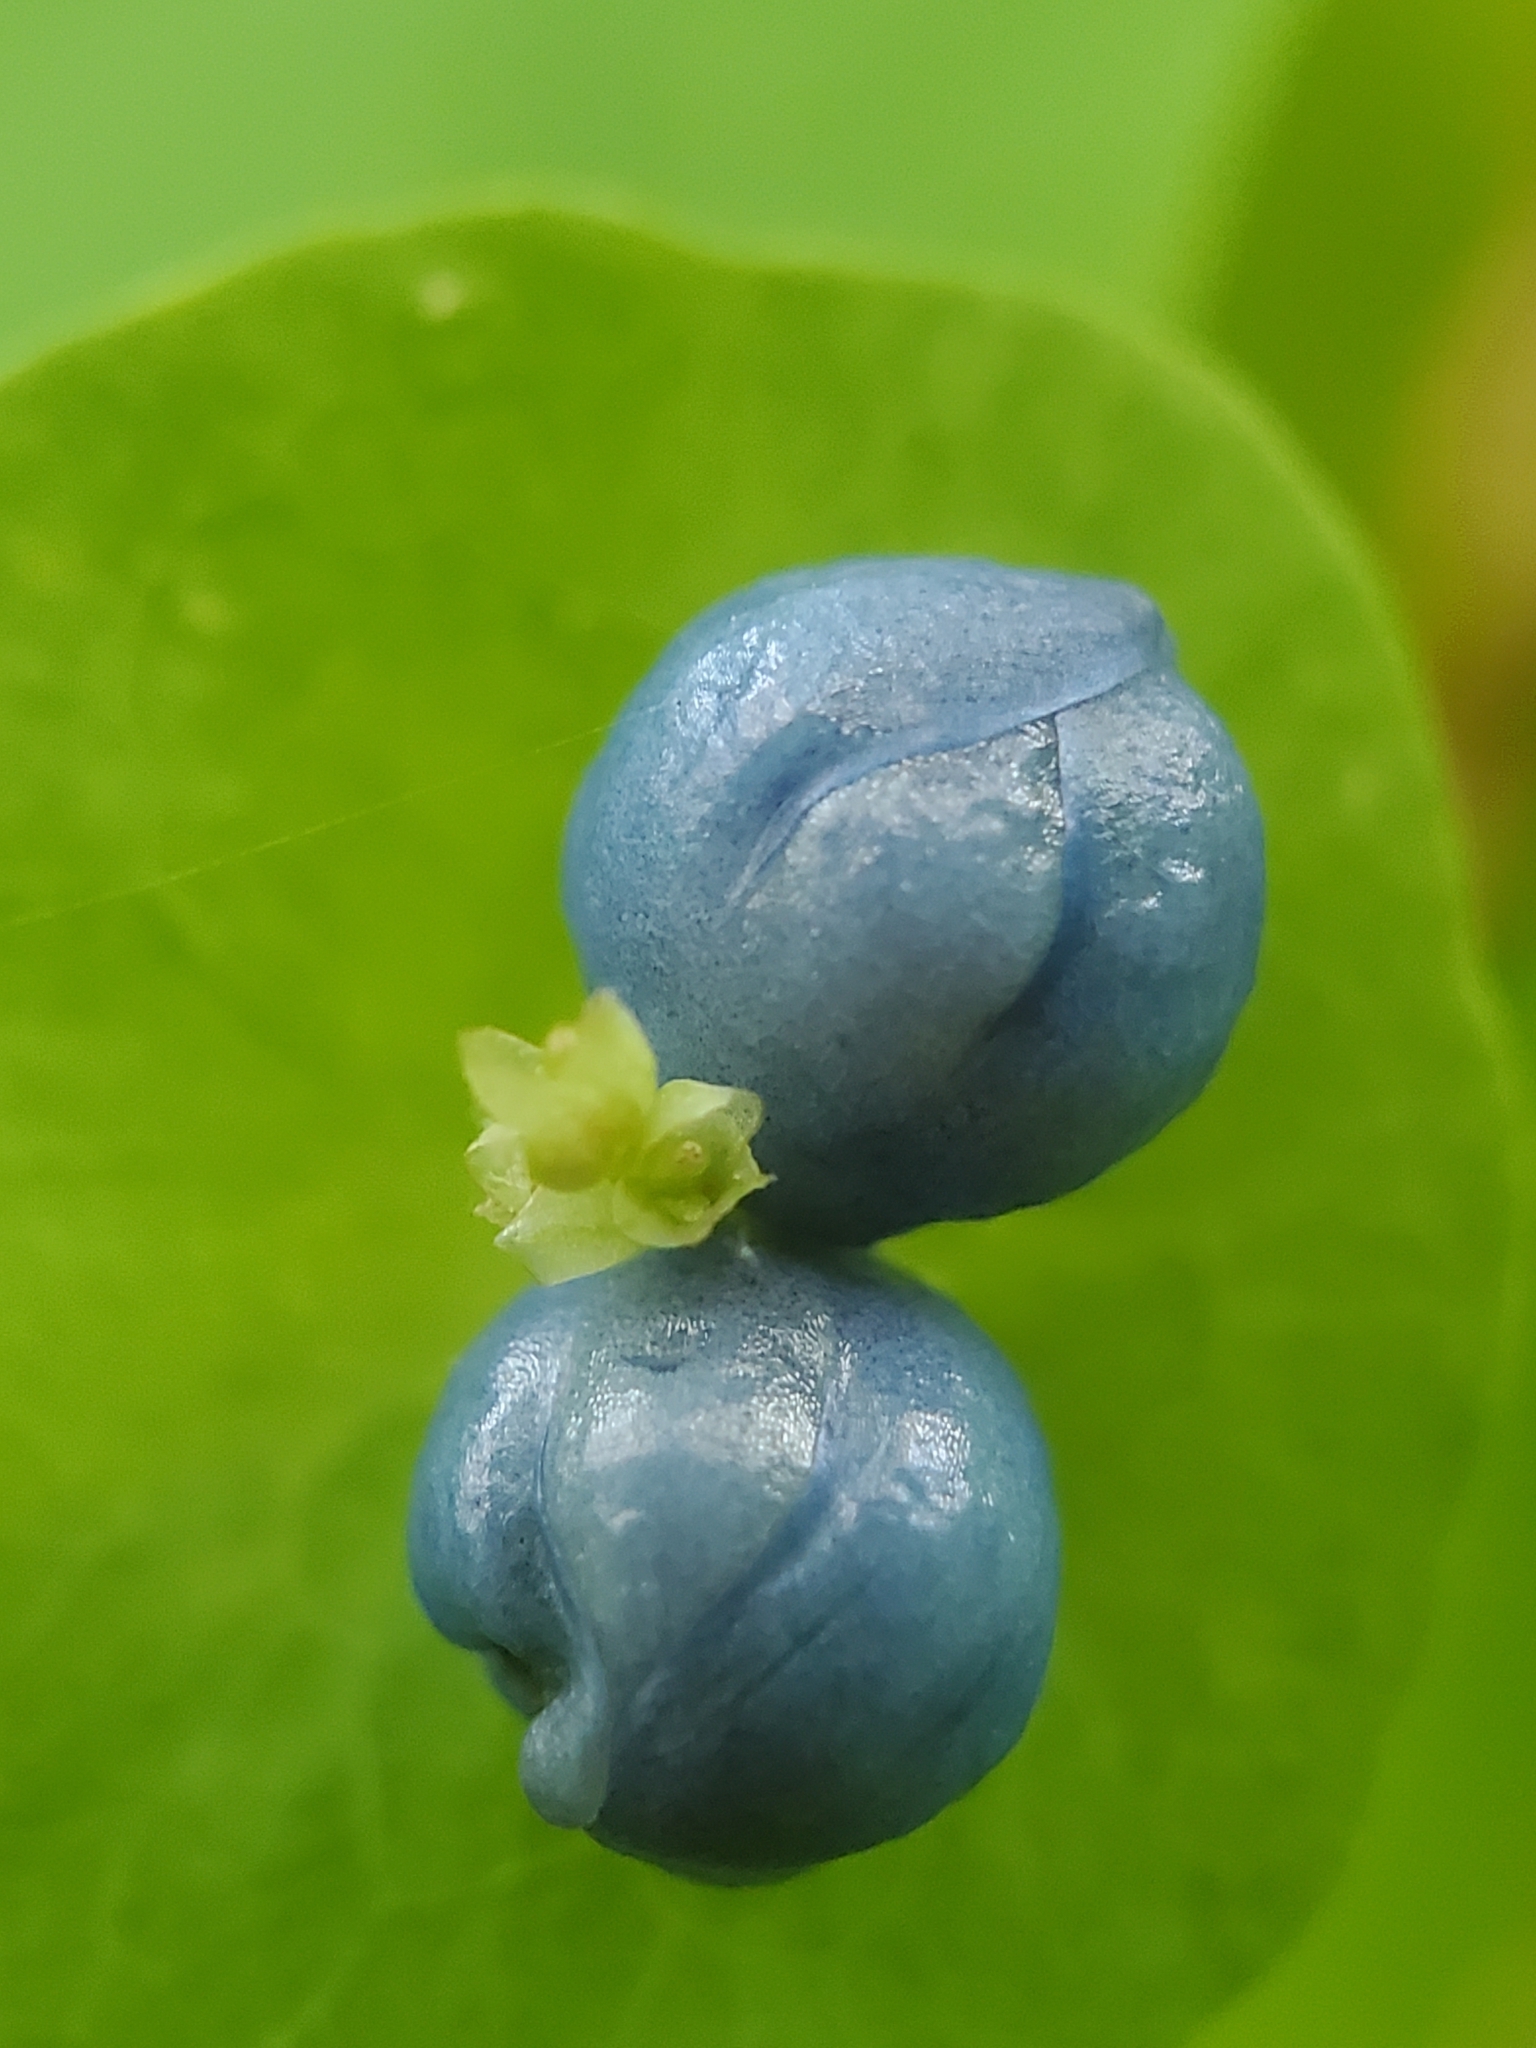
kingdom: Plantae
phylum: Tracheophyta
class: Magnoliopsida
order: Caryophyllales
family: Polygonaceae
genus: Persicaria
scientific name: Persicaria perfoliata
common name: Asiatic tearthumb
